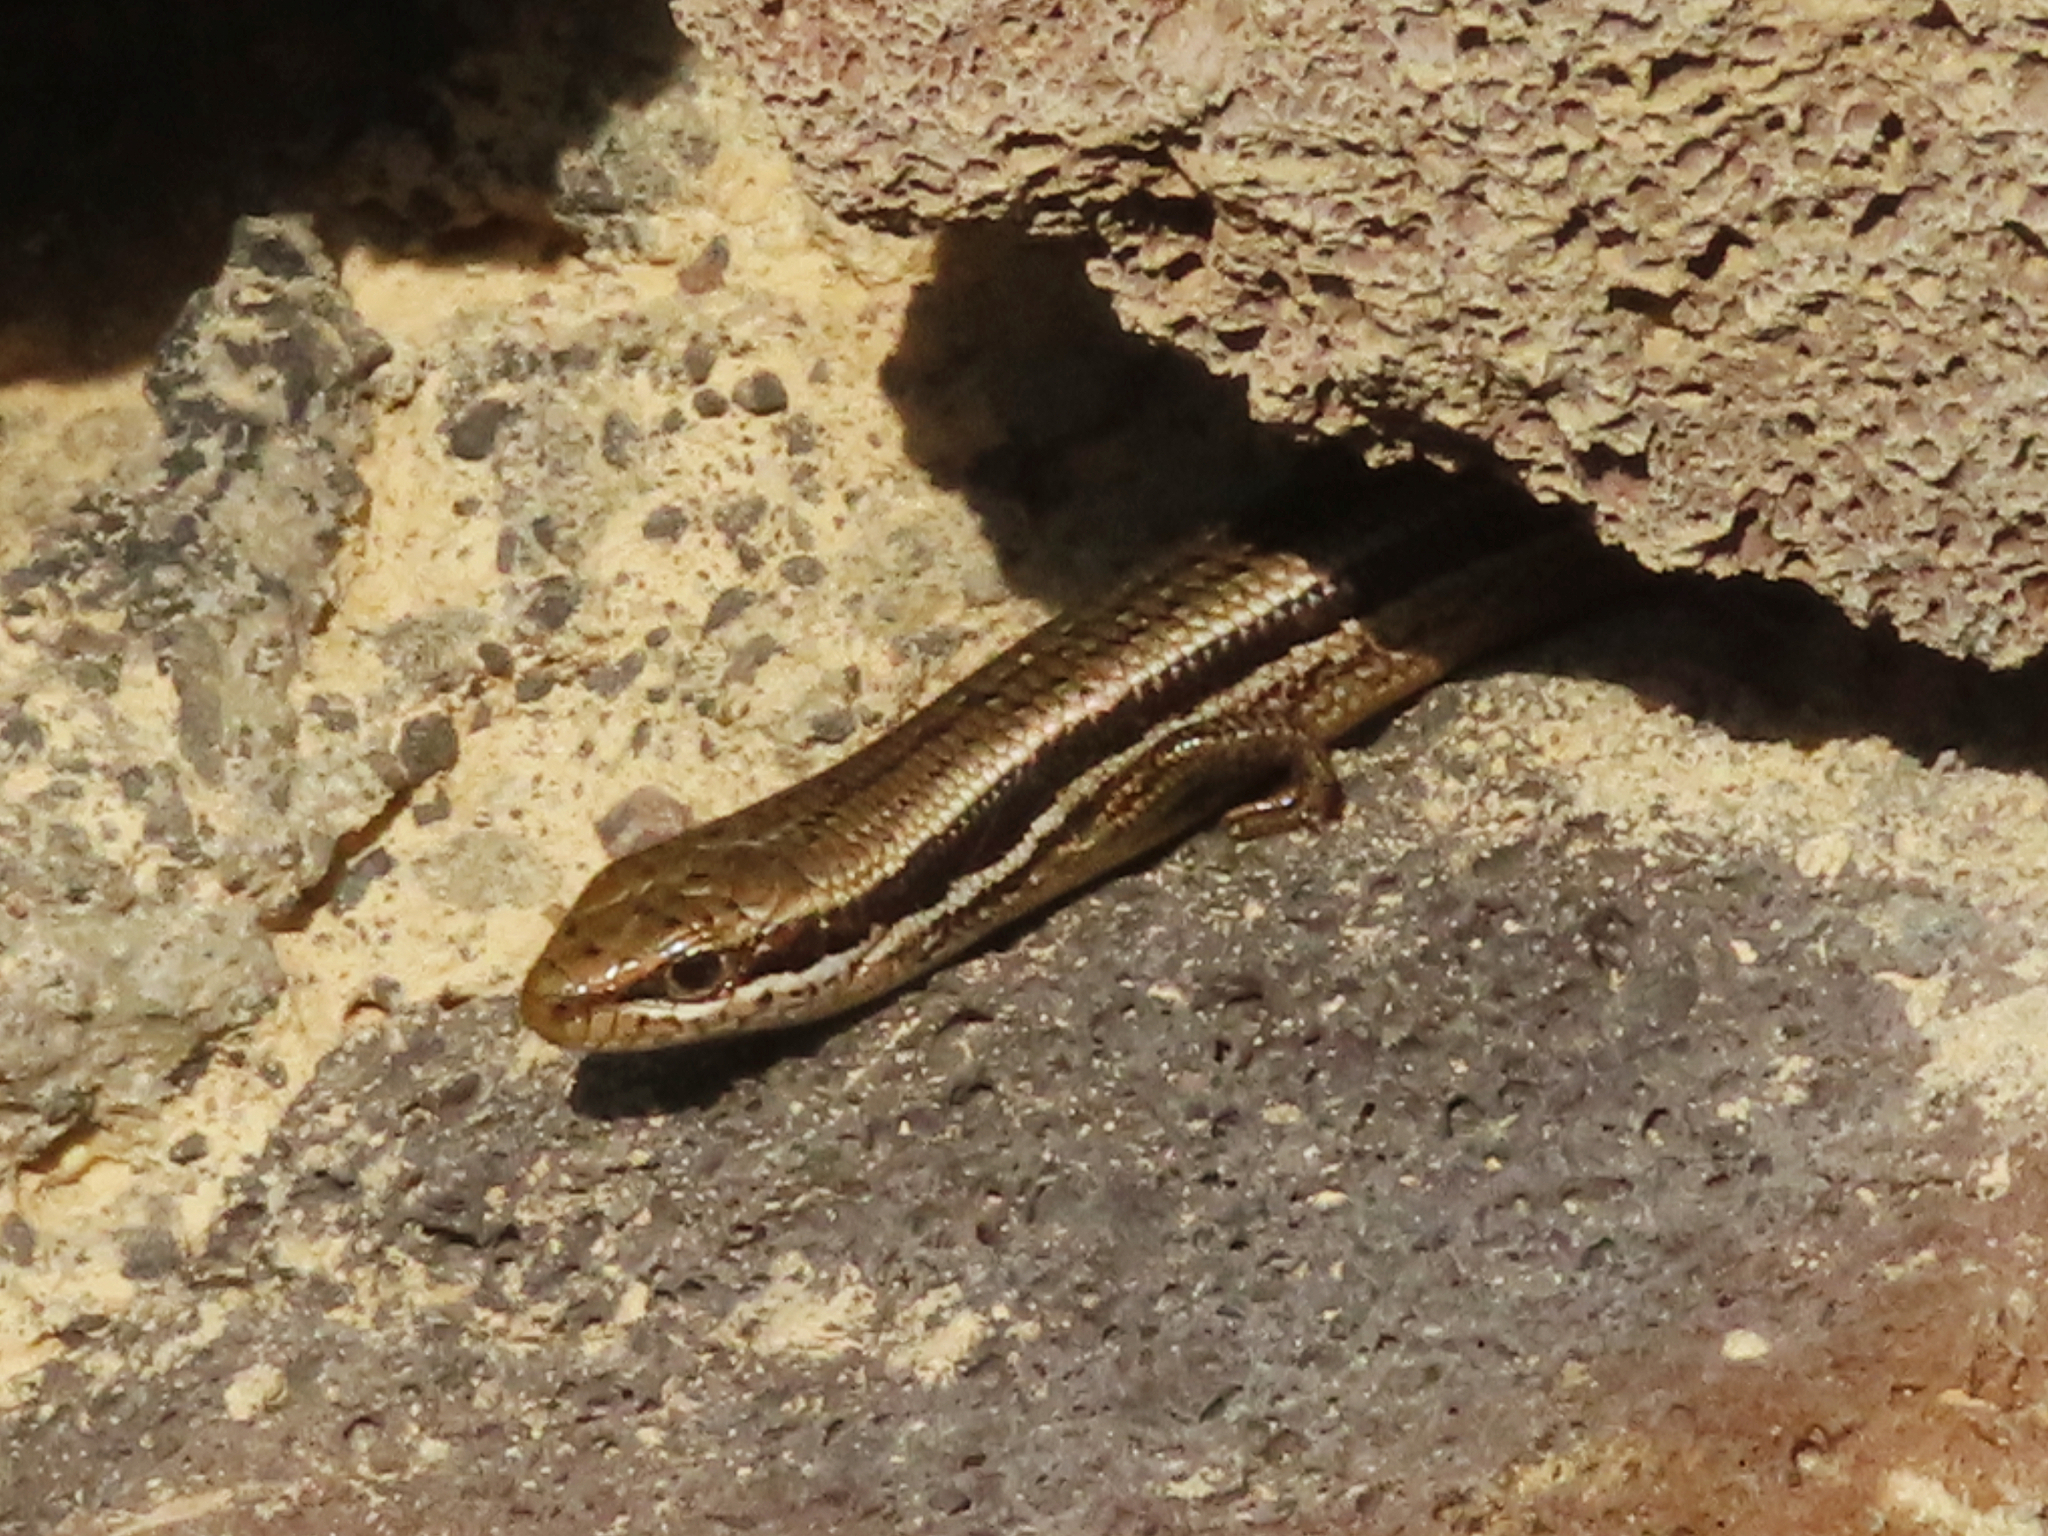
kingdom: Animalia
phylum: Chordata
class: Squamata
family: Scincidae
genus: Ablepharus
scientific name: Ablepharus bivittatus
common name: Twin-striped skink
